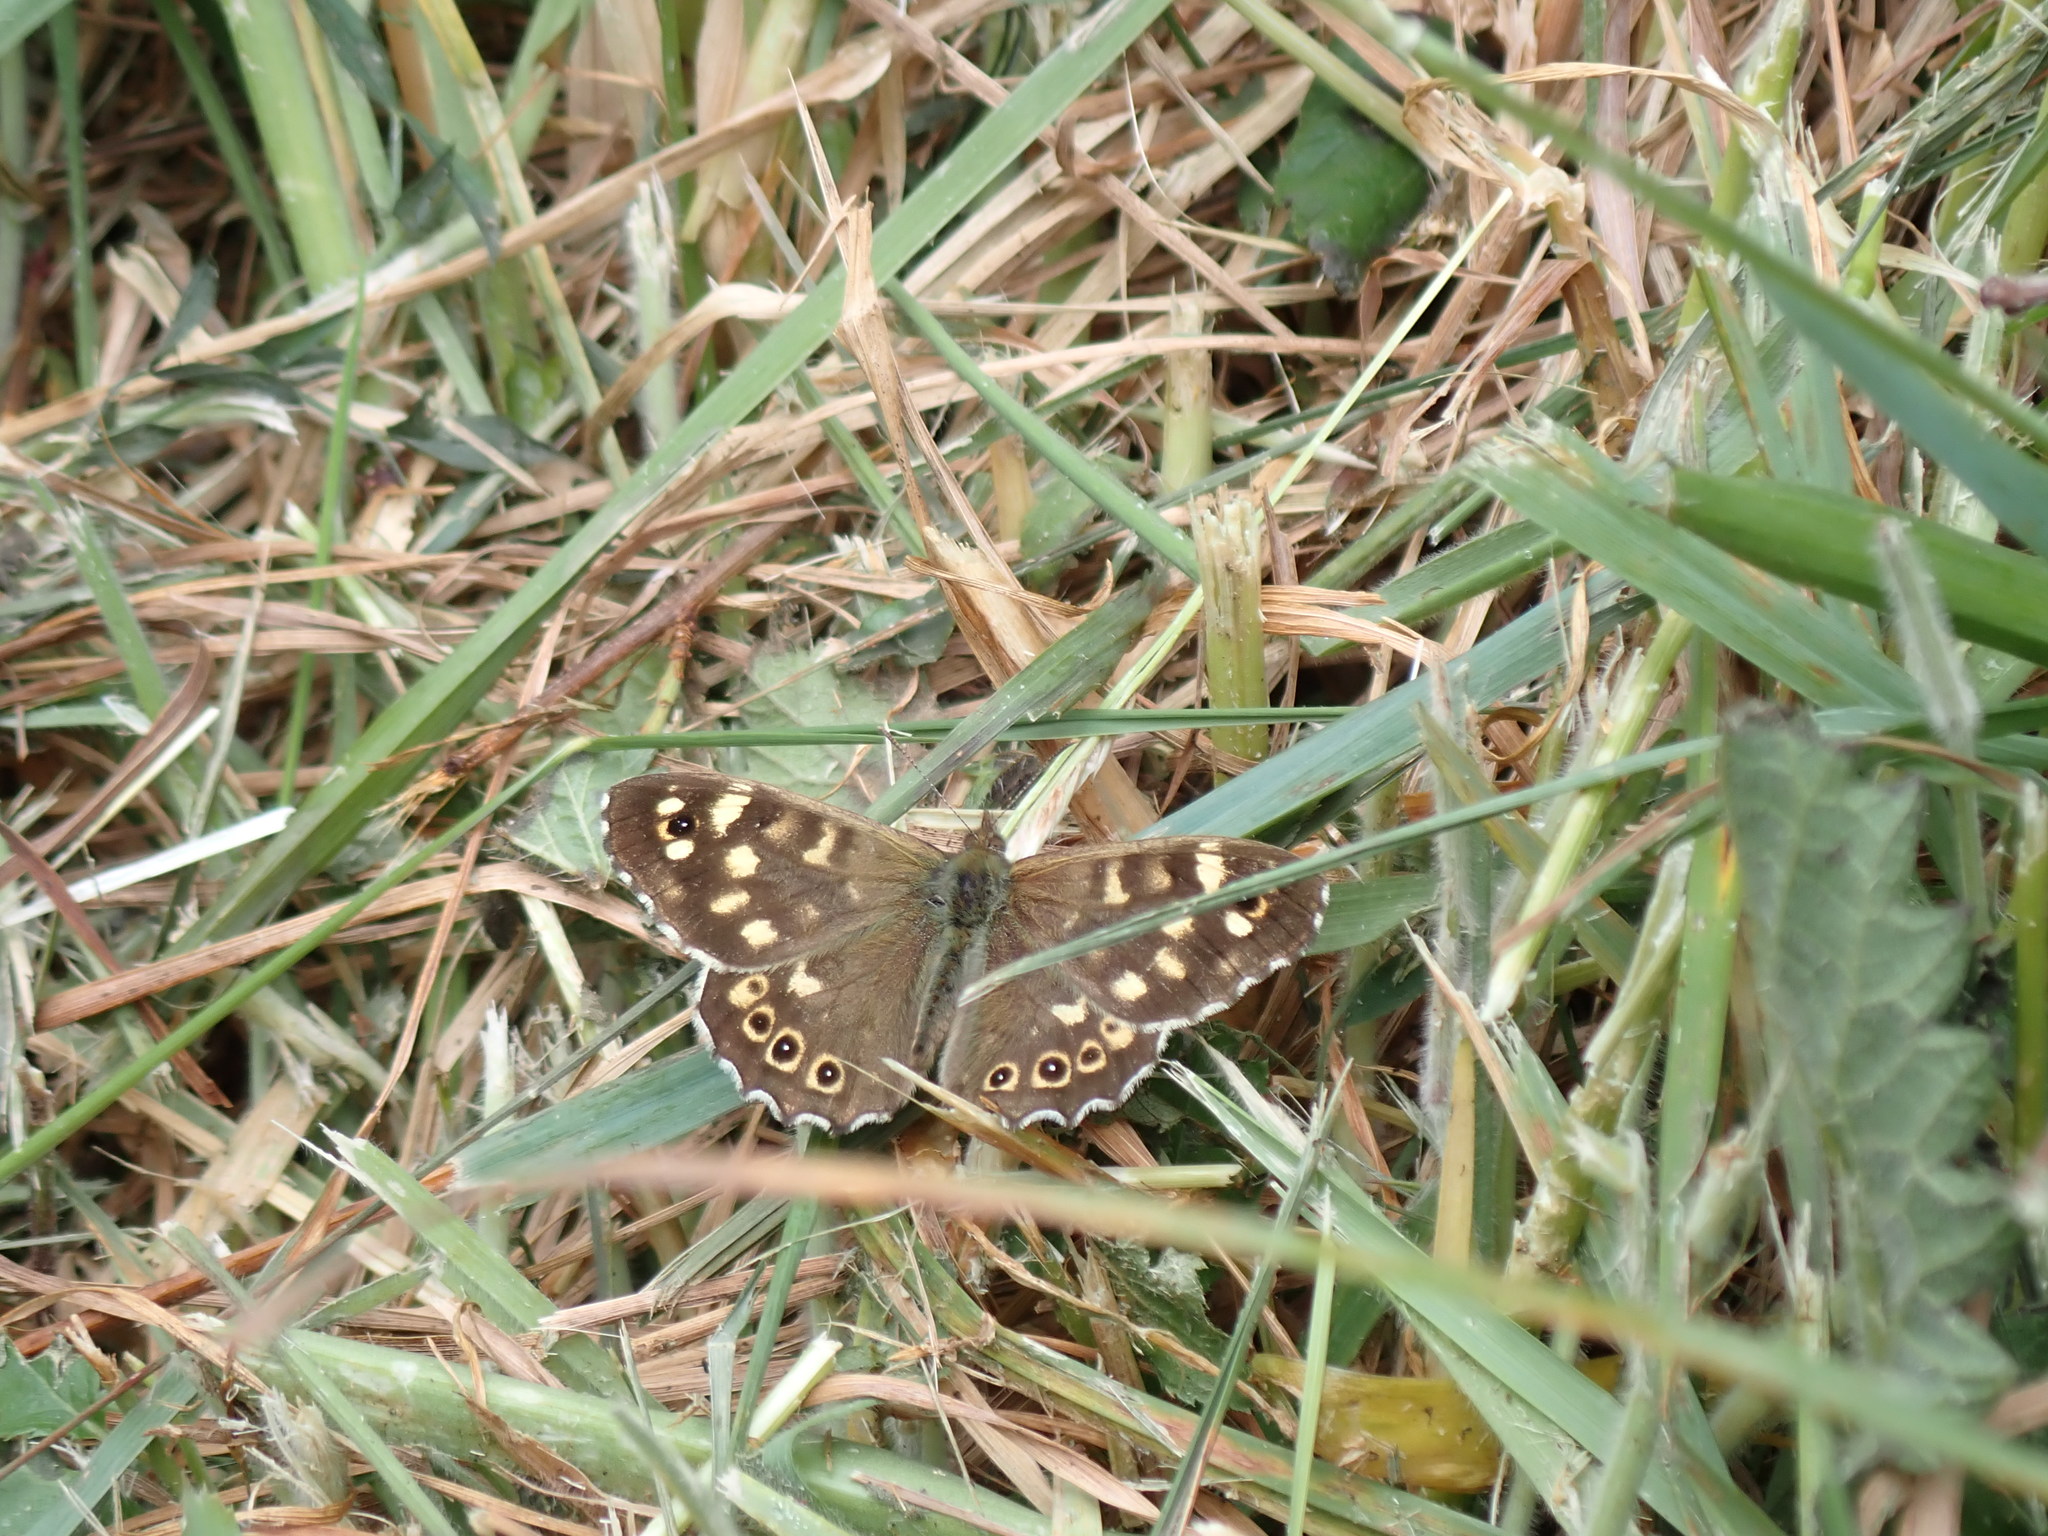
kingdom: Animalia
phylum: Arthropoda
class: Insecta
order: Lepidoptera
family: Nymphalidae
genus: Pararge
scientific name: Pararge aegeria
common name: Speckled wood
